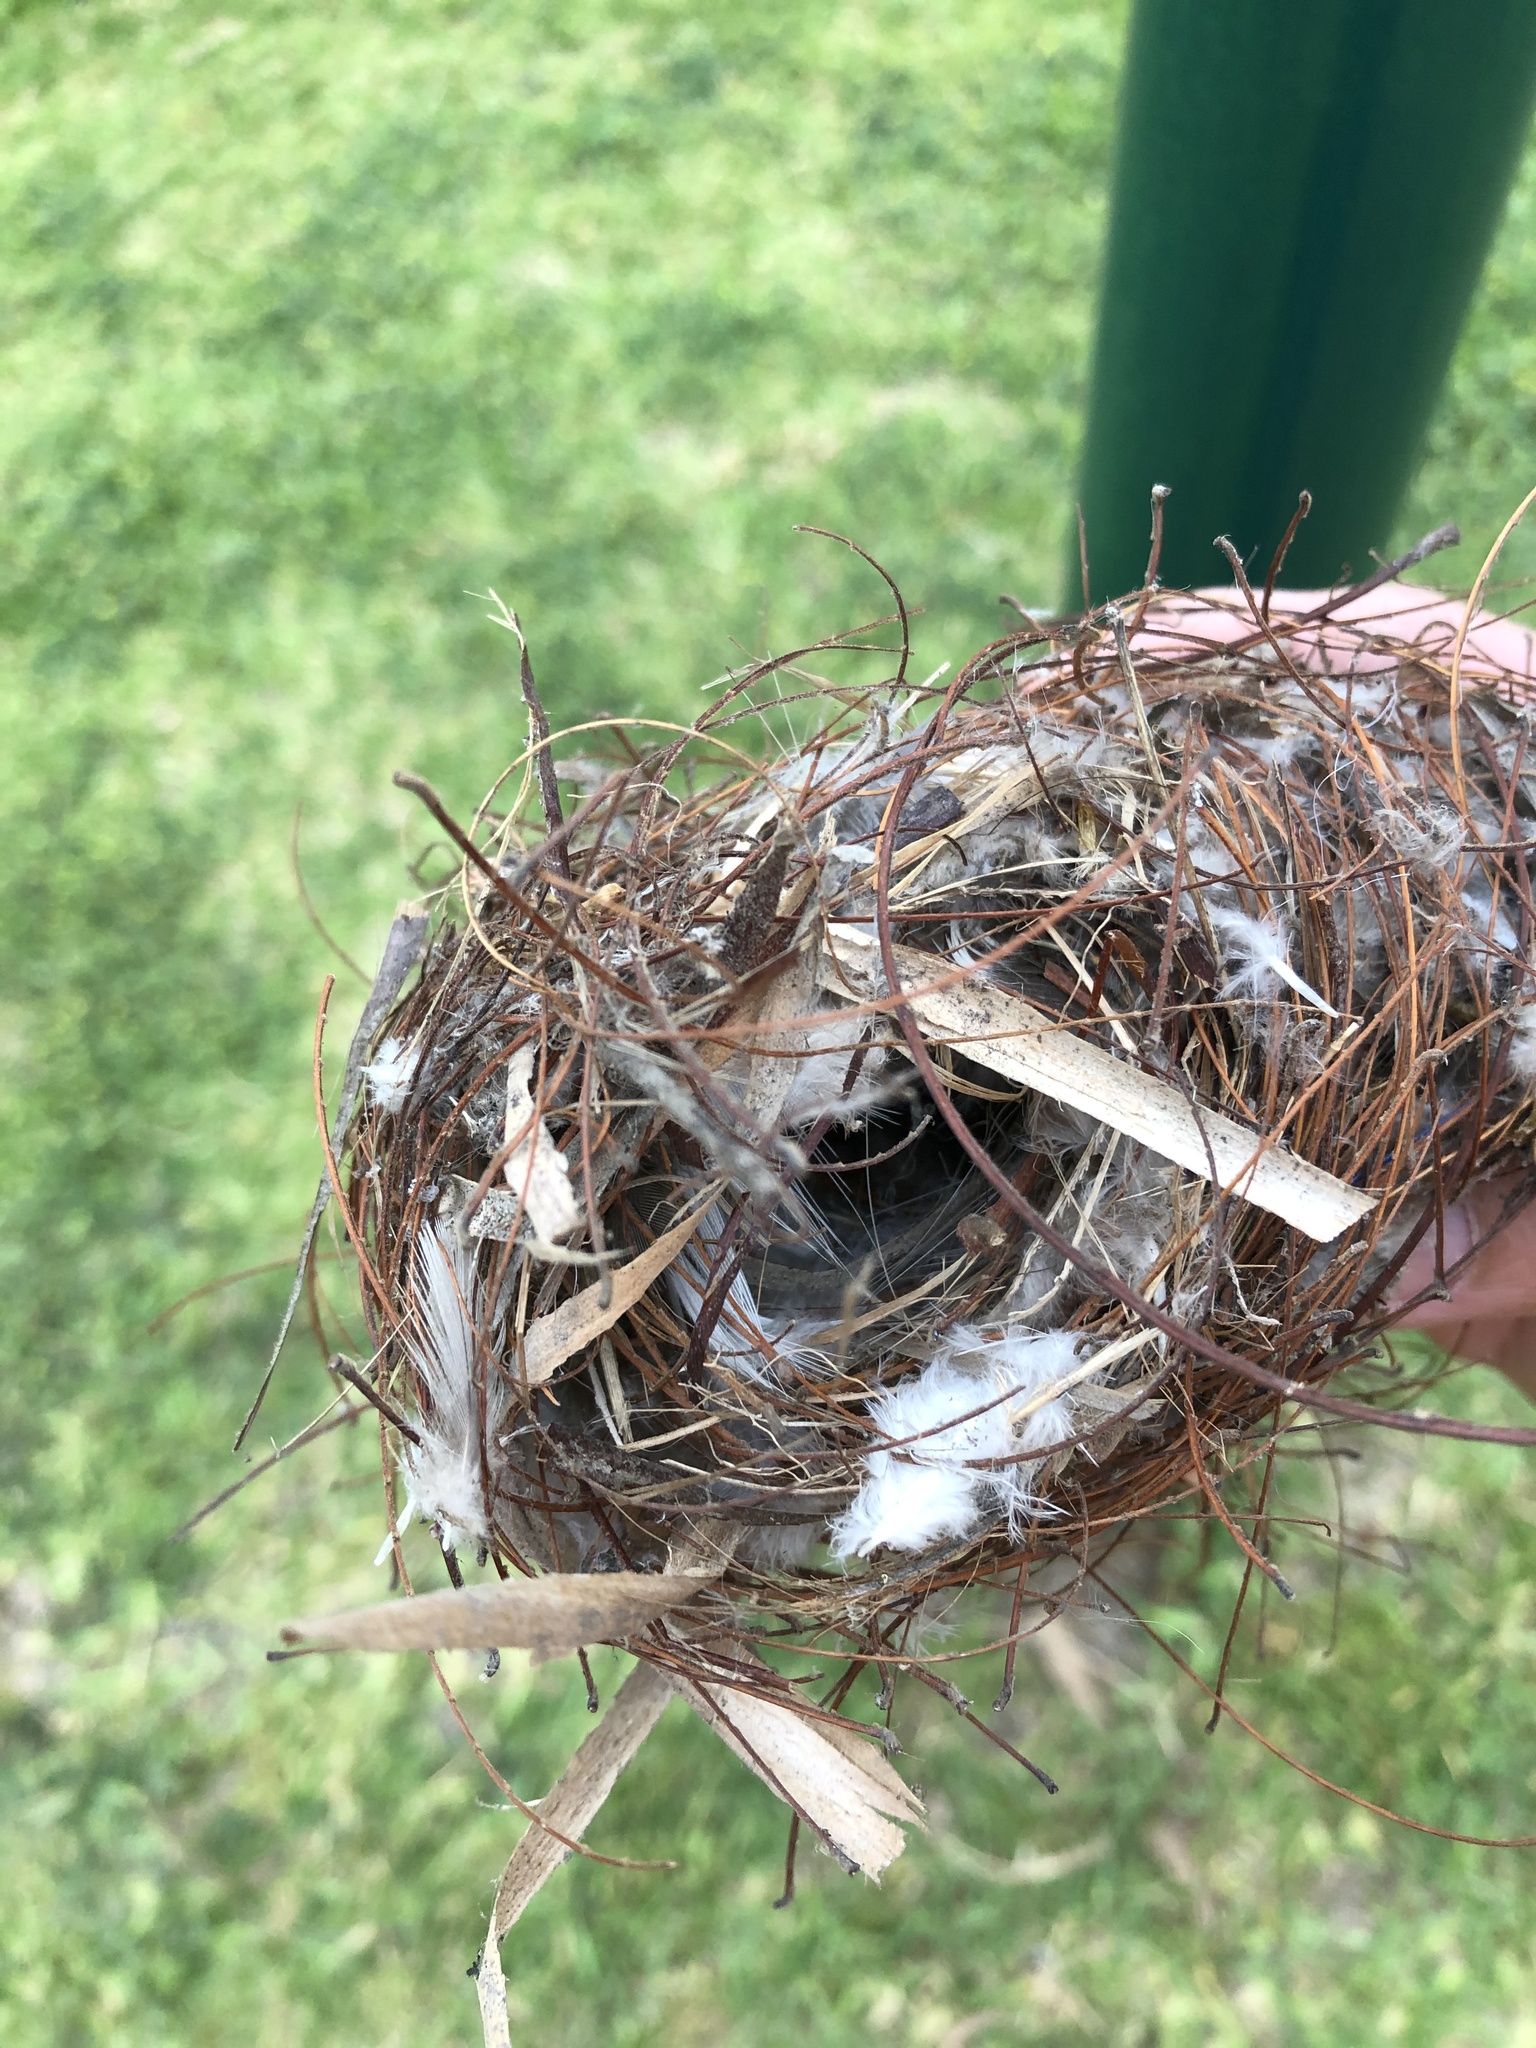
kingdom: Animalia
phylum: Chordata
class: Aves
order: Passeriformes
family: Thraupidae
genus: Coereba
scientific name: Coereba flaveola
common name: Bananaquit
